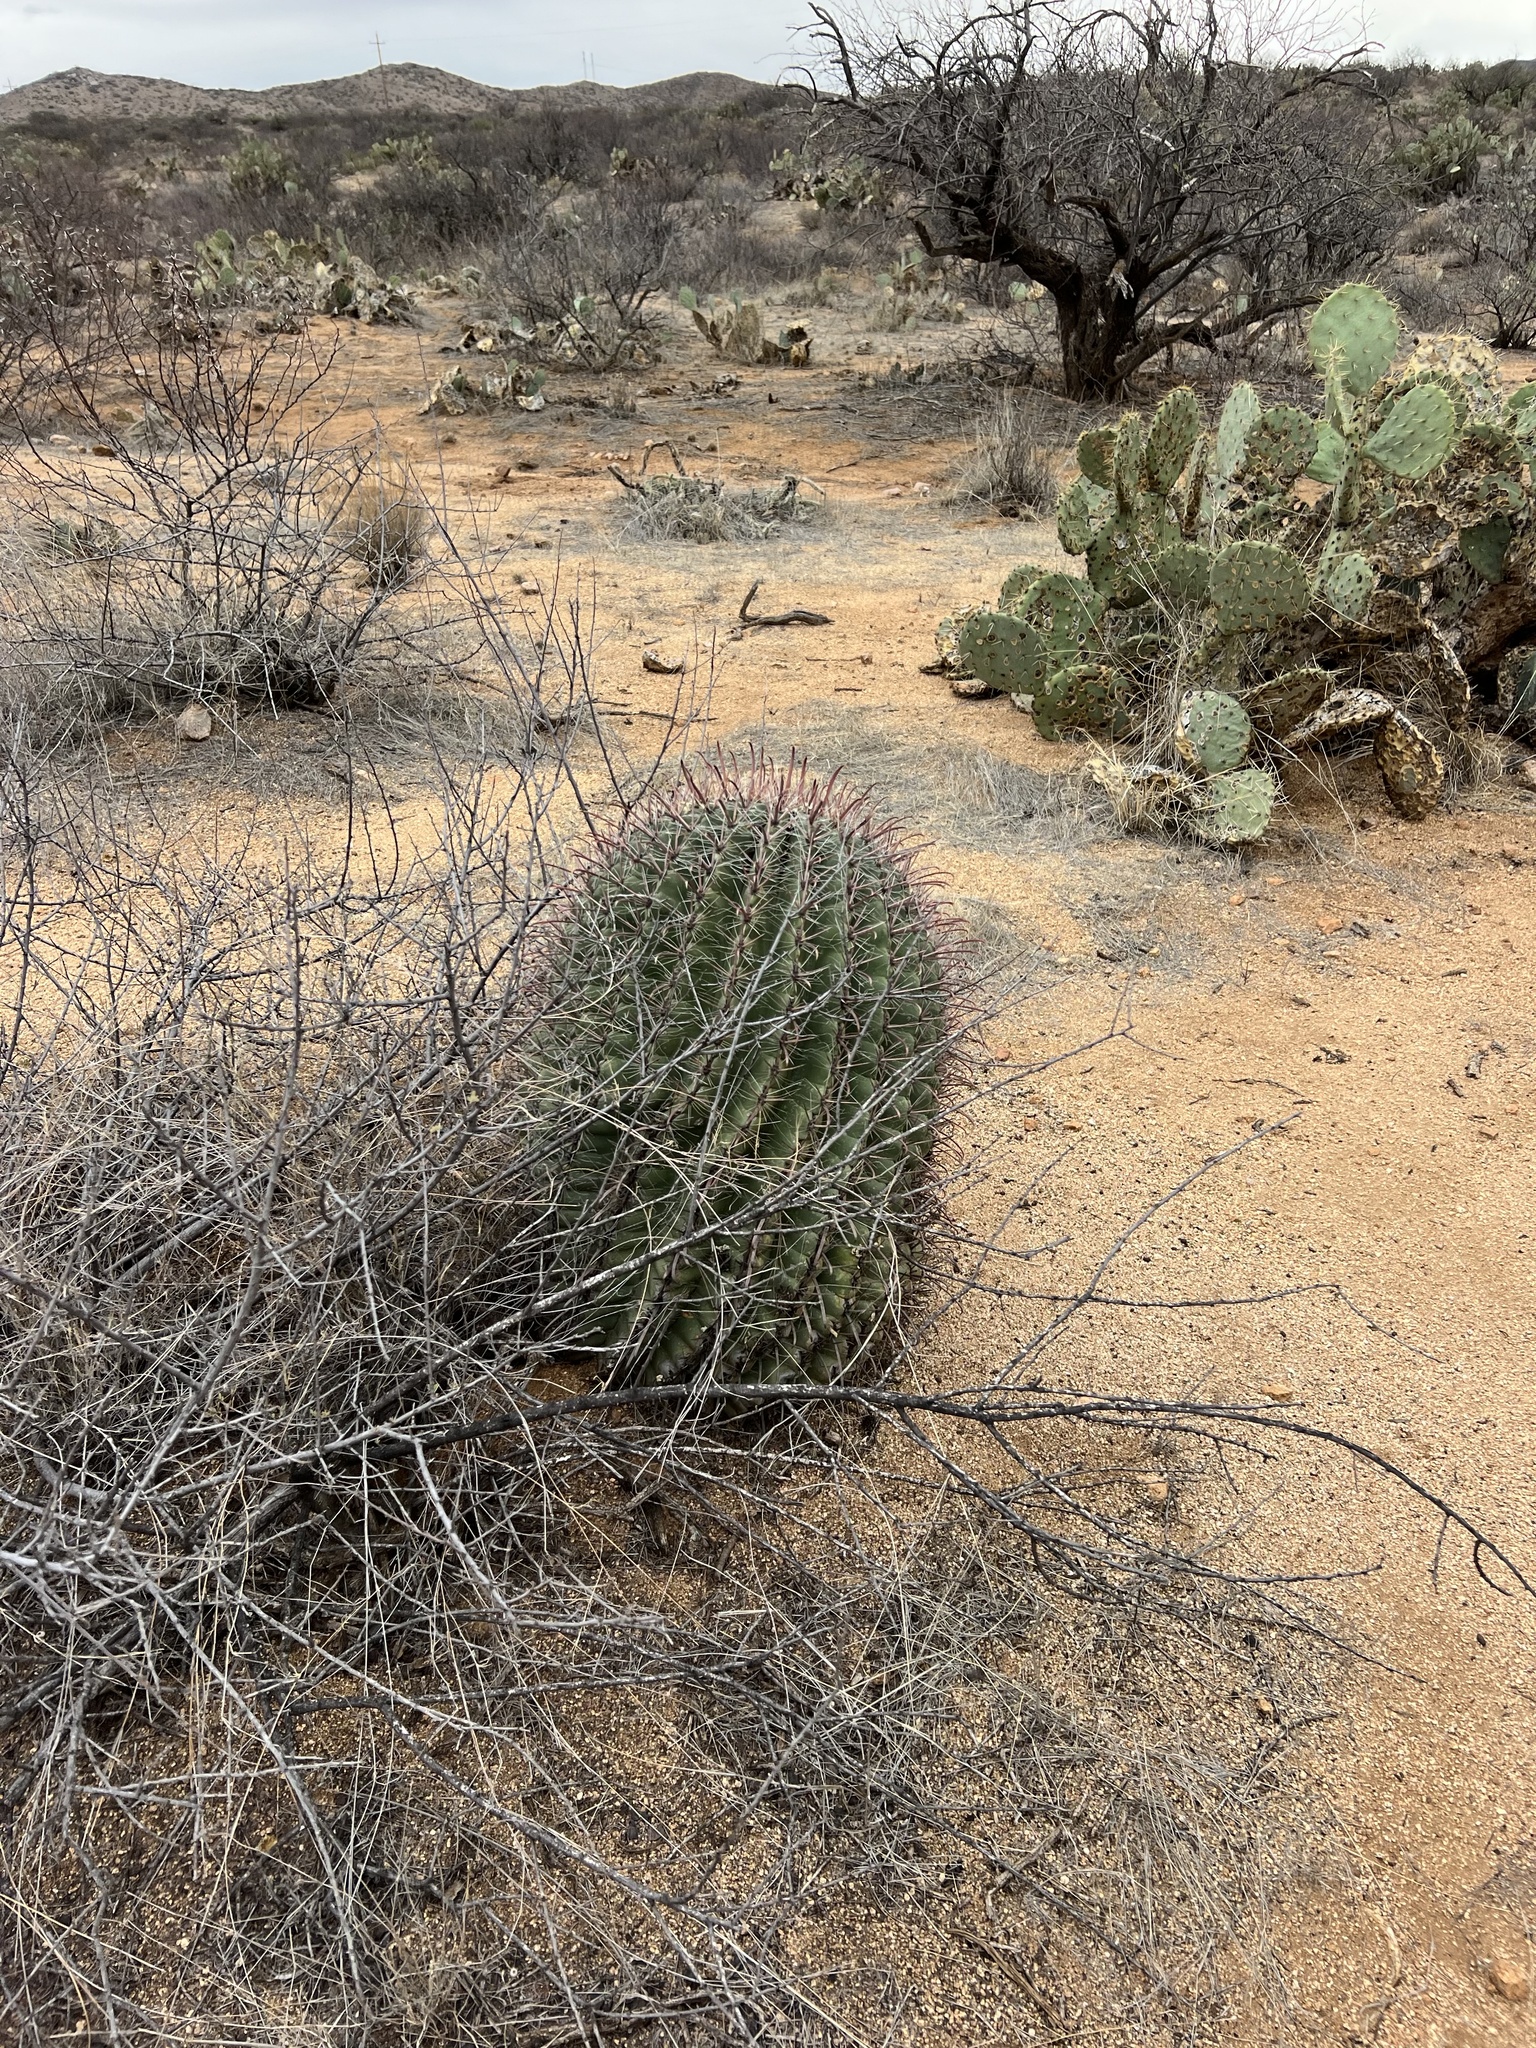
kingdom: Plantae
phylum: Tracheophyta
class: Magnoliopsida
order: Caryophyllales
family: Cactaceae
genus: Ferocactus
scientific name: Ferocactus wislizeni
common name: Candy barrel cactus
